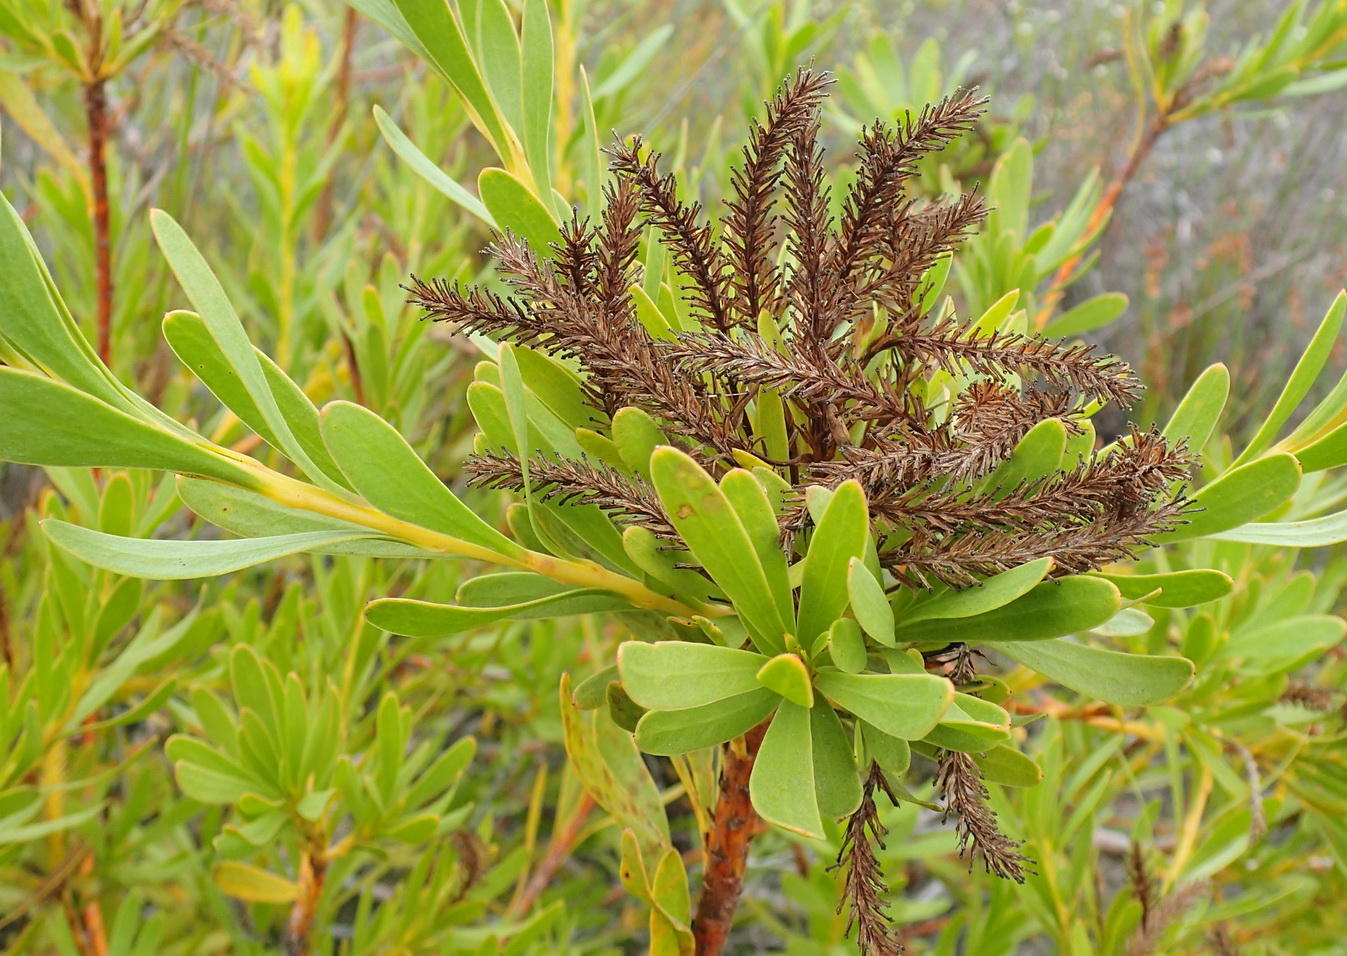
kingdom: Plantae
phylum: Tracheophyta
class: Magnoliopsida
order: Proteales
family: Proteaceae
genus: Aulax
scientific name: Aulax umbellata
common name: Broad-leaf featherbush
